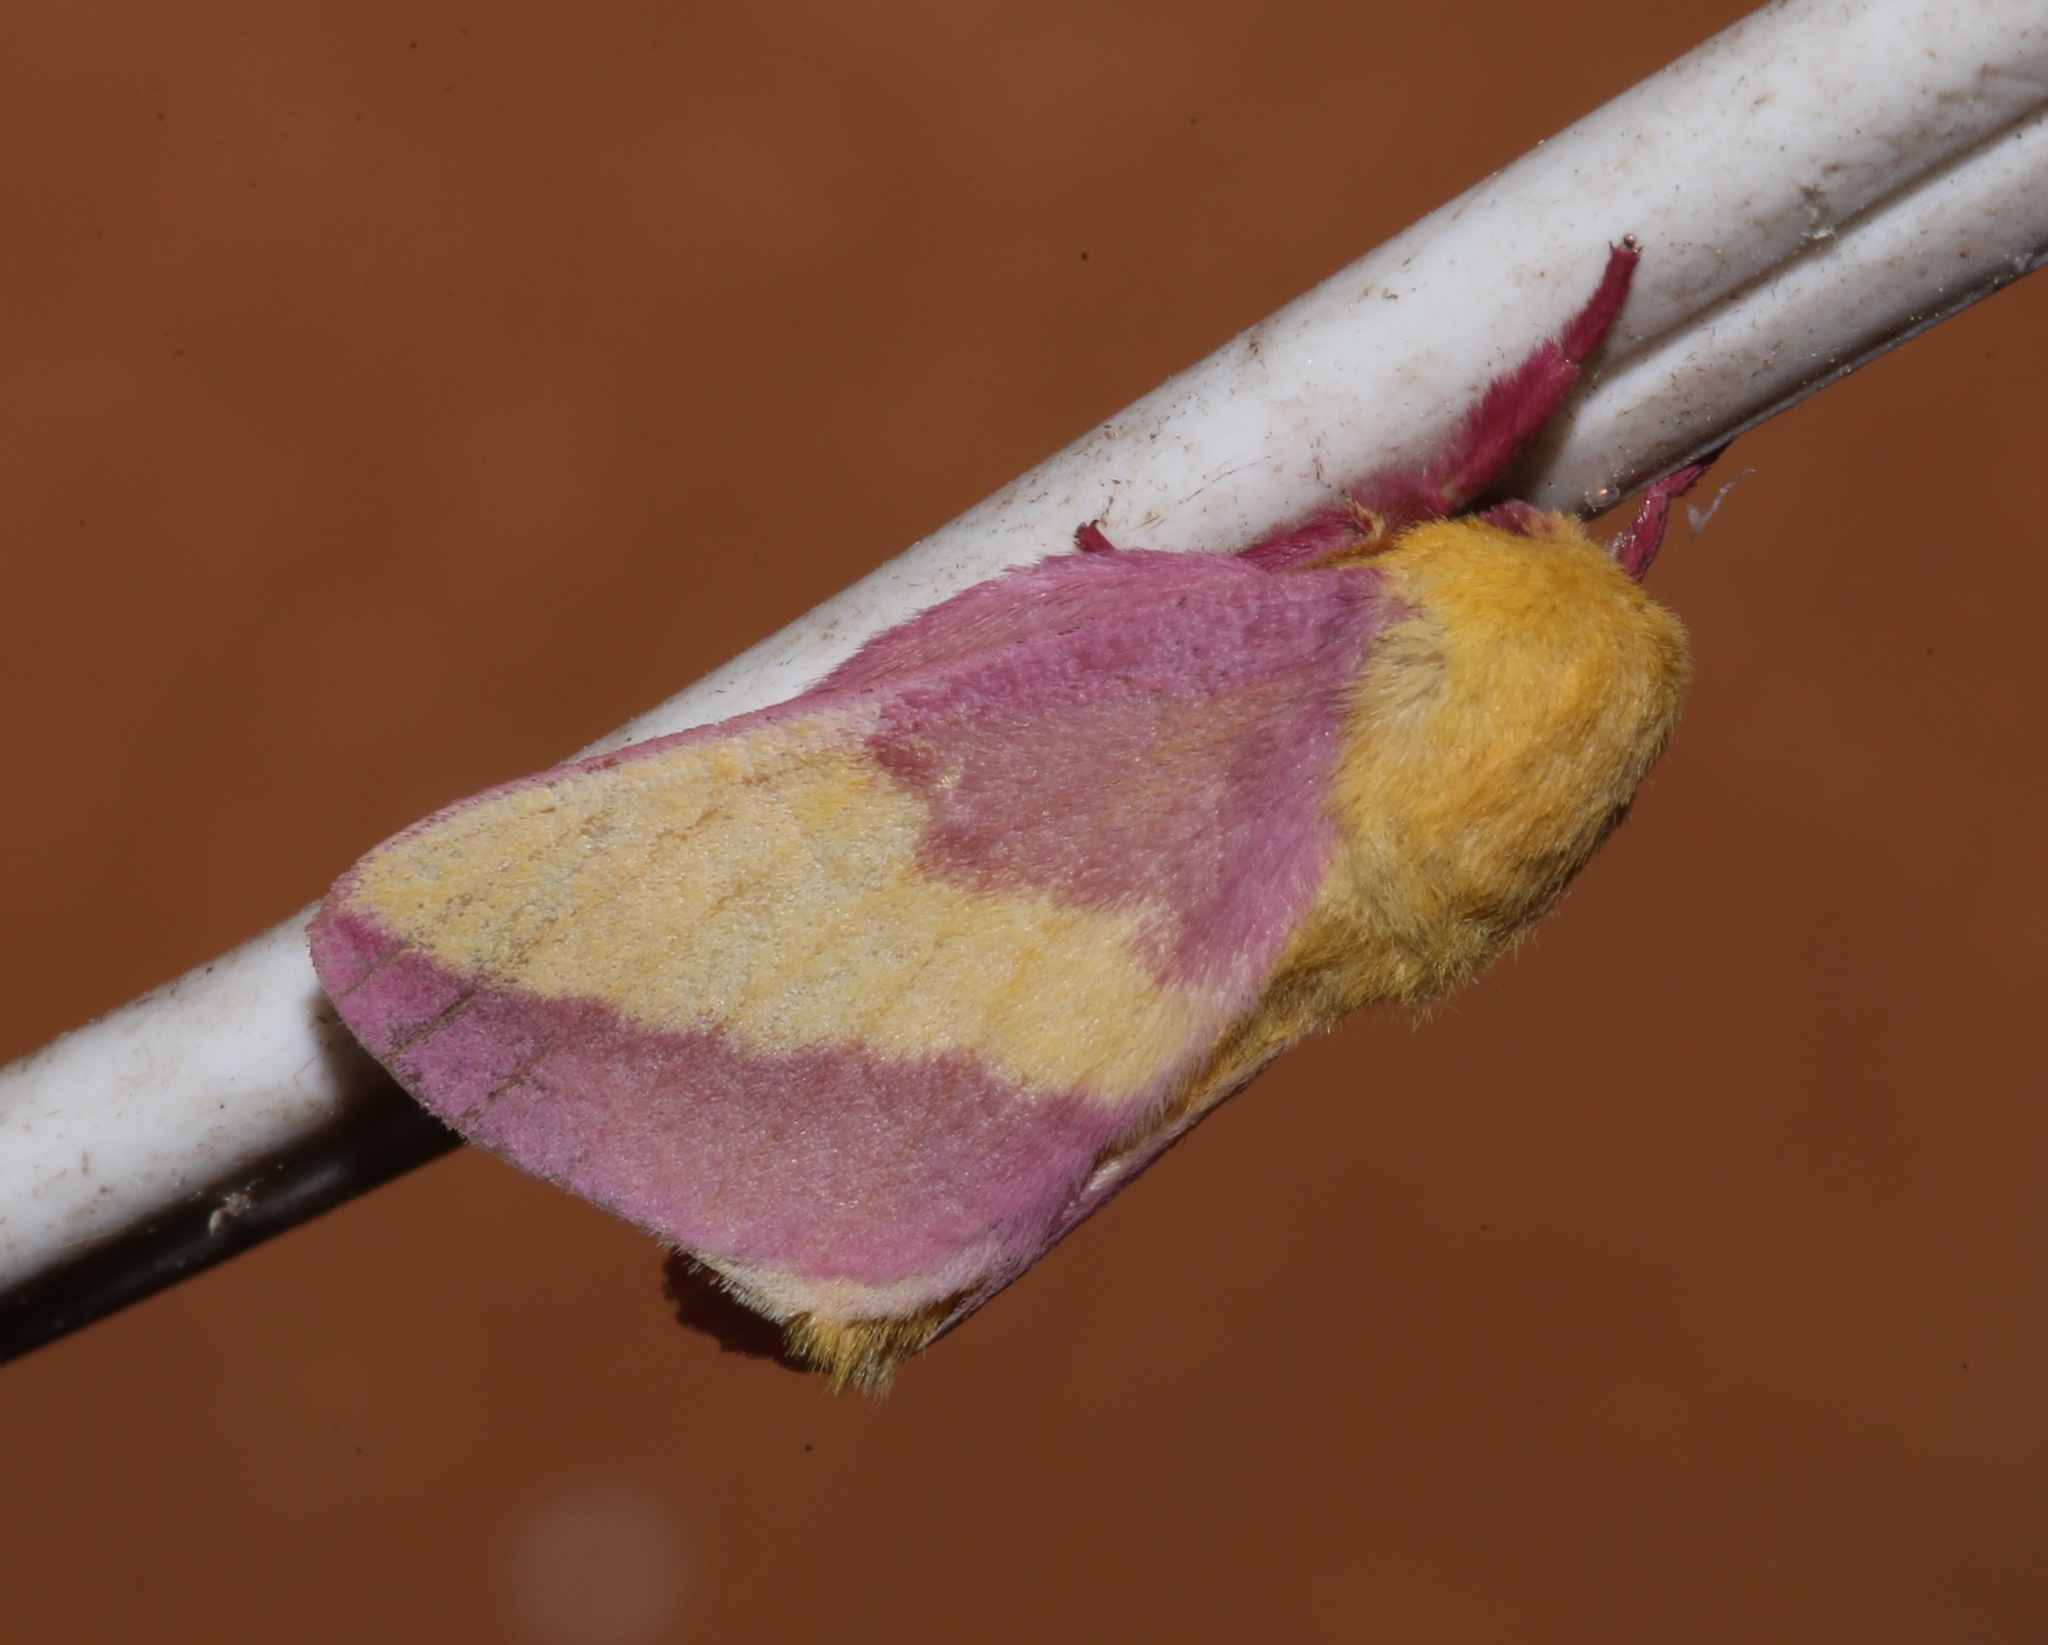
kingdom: Animalia
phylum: Arthropoda
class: Insecta
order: Lepidoptera
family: Saturniidae
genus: Dryocampa
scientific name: Dryocampa rubicunda
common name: Rosy maple moth
